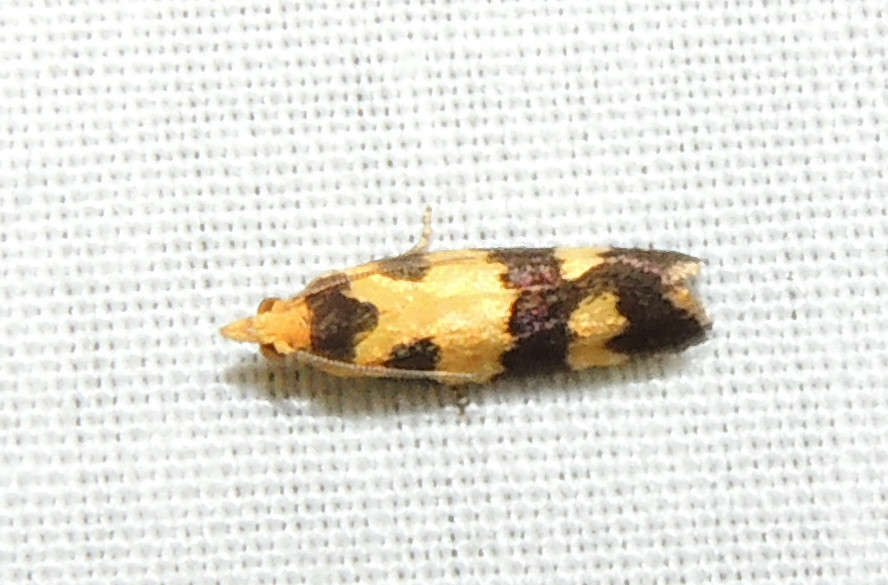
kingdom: Animalia
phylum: Arthropoda
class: Insecta
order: Lepidoptera
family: Tortricidae
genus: Conchylis
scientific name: Conchylis tasmaniana
